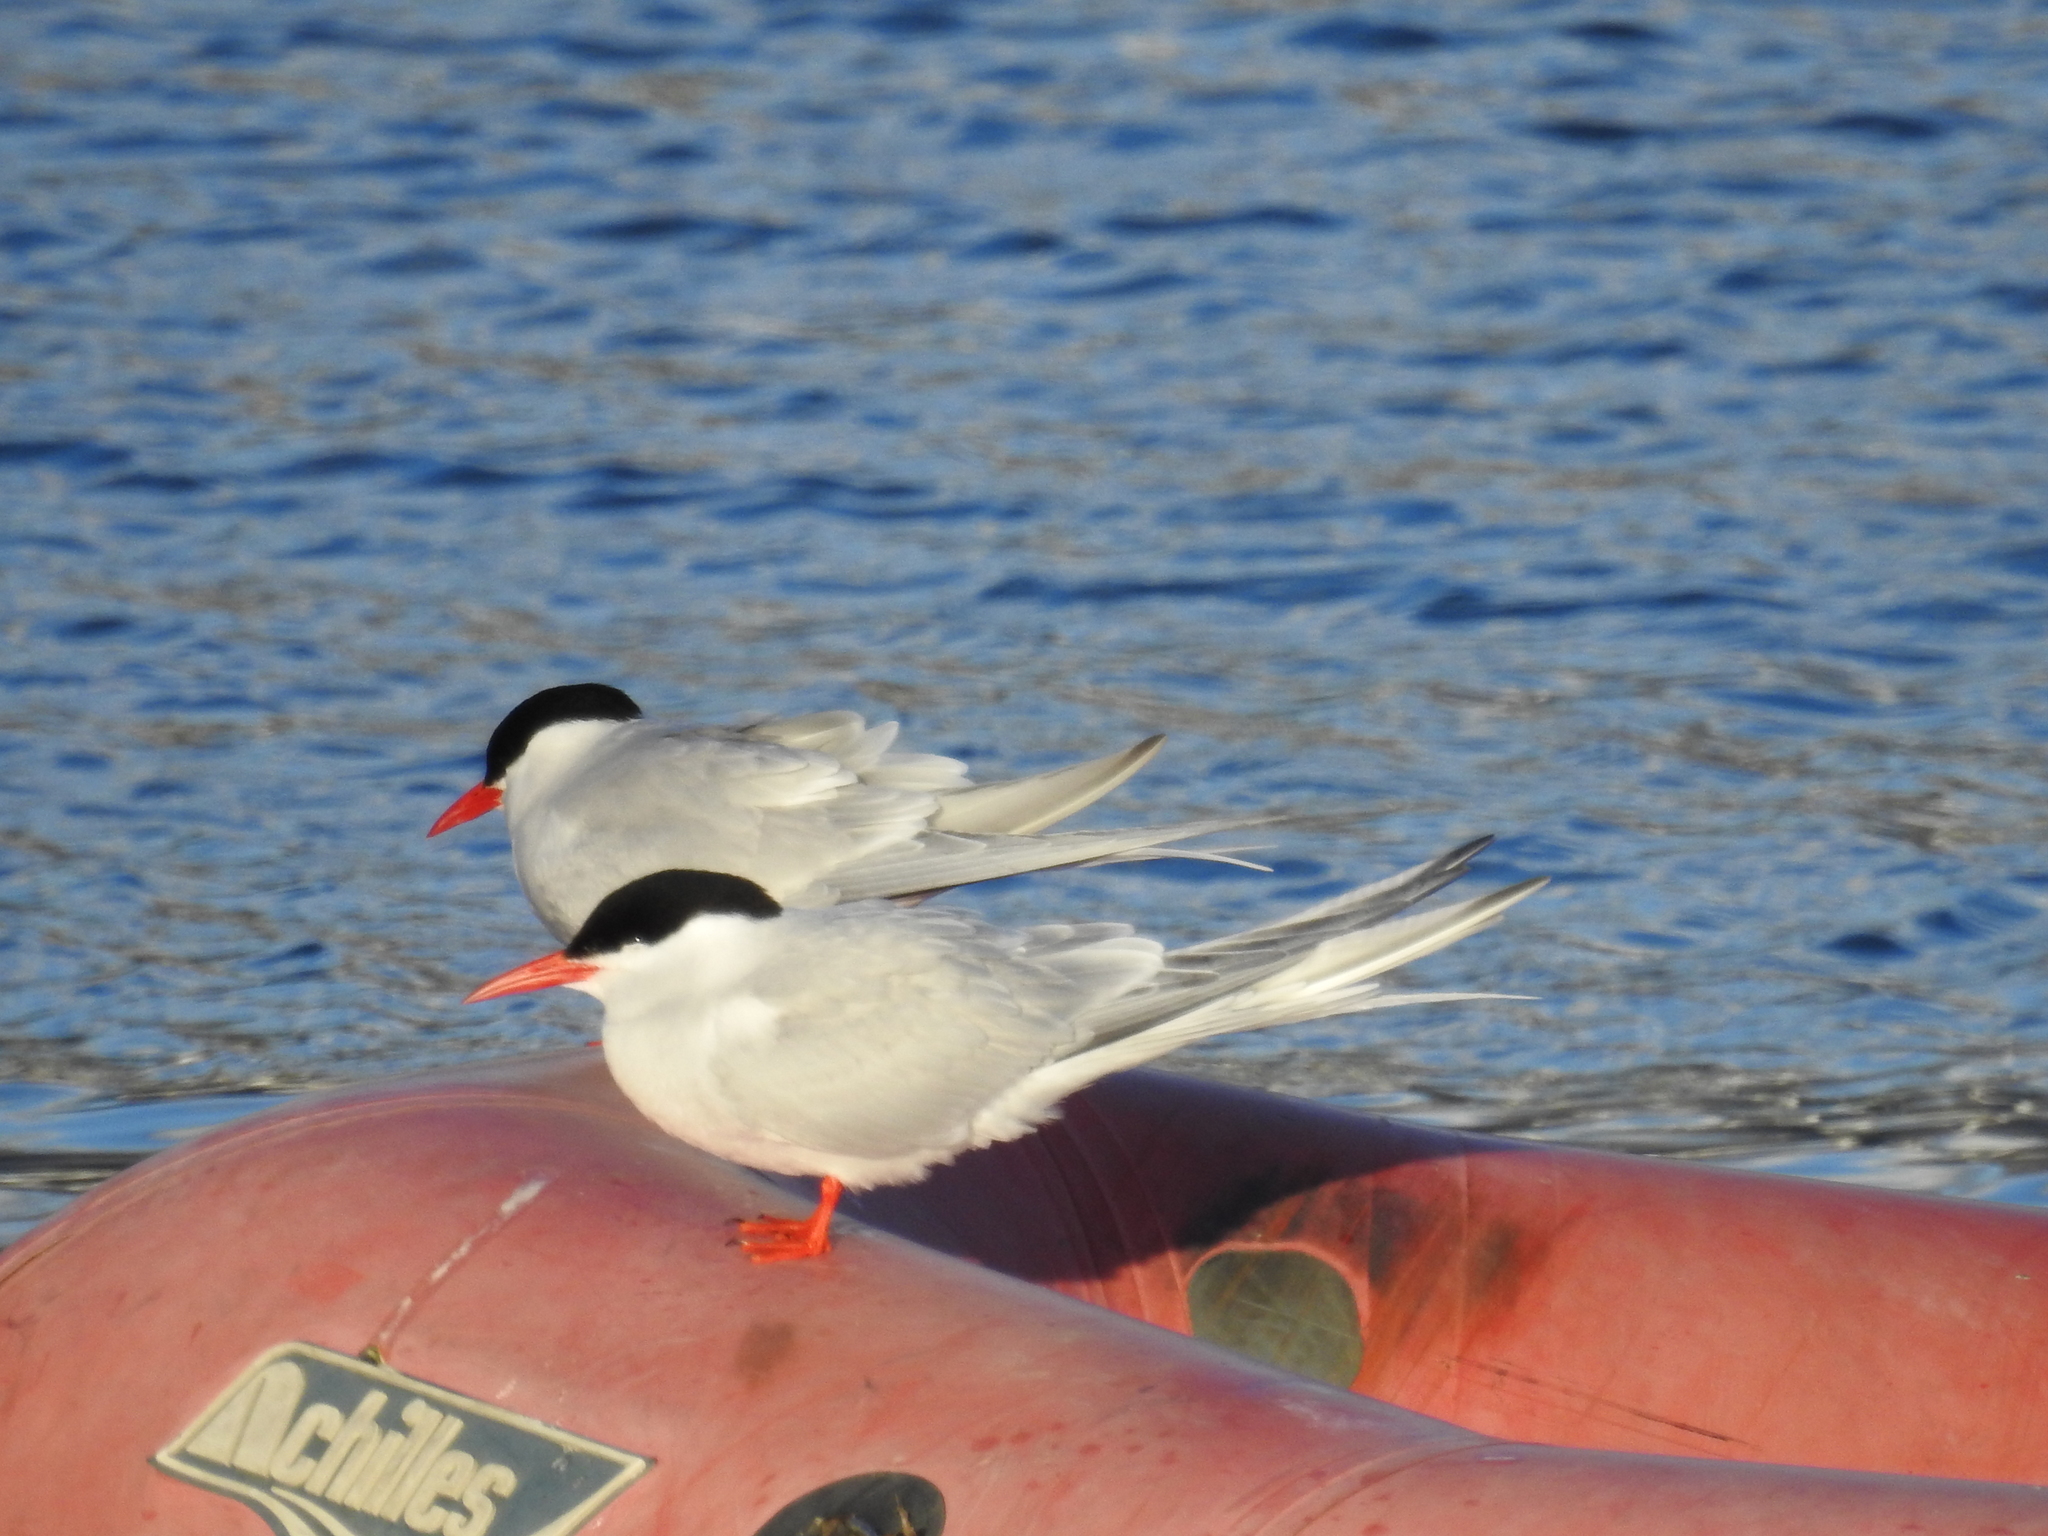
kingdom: Animalia
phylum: Chordata
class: Aves
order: Charadriiformes
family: Laridae
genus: Sterna
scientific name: Sterna hirundinacea
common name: South american tern
